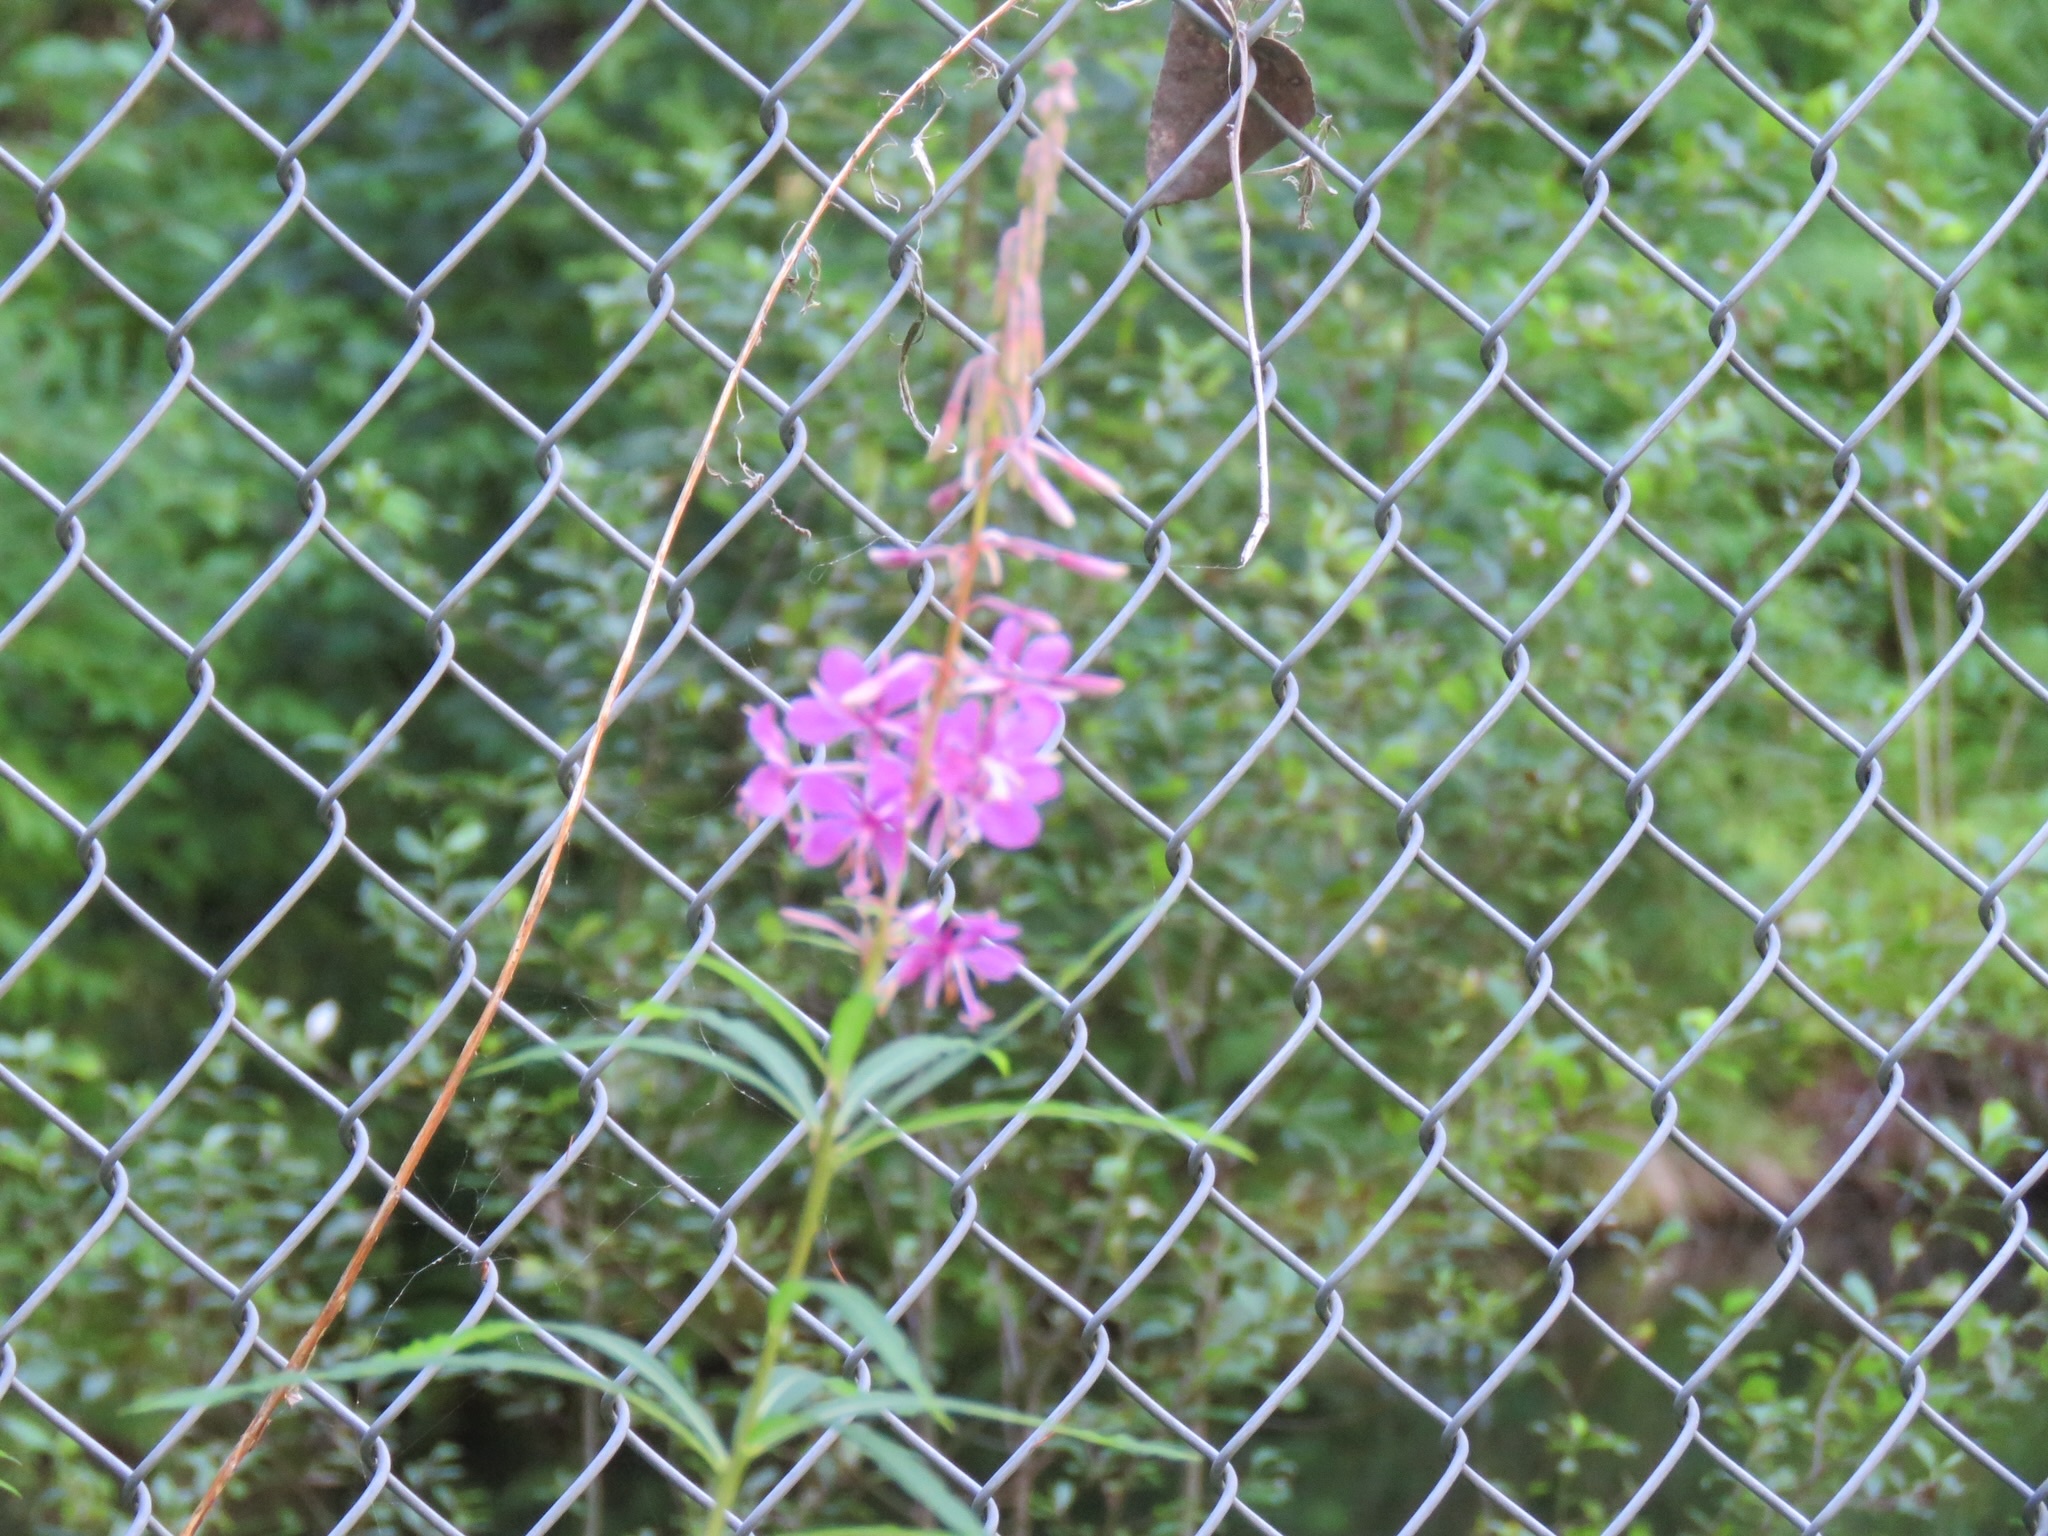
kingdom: Plantae
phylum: Tracheophyta
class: Magnoliopsida
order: Myrtales
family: Onagraceae
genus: Chamaenerion
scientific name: Chamaenerion angustifolium
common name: Fireweed
